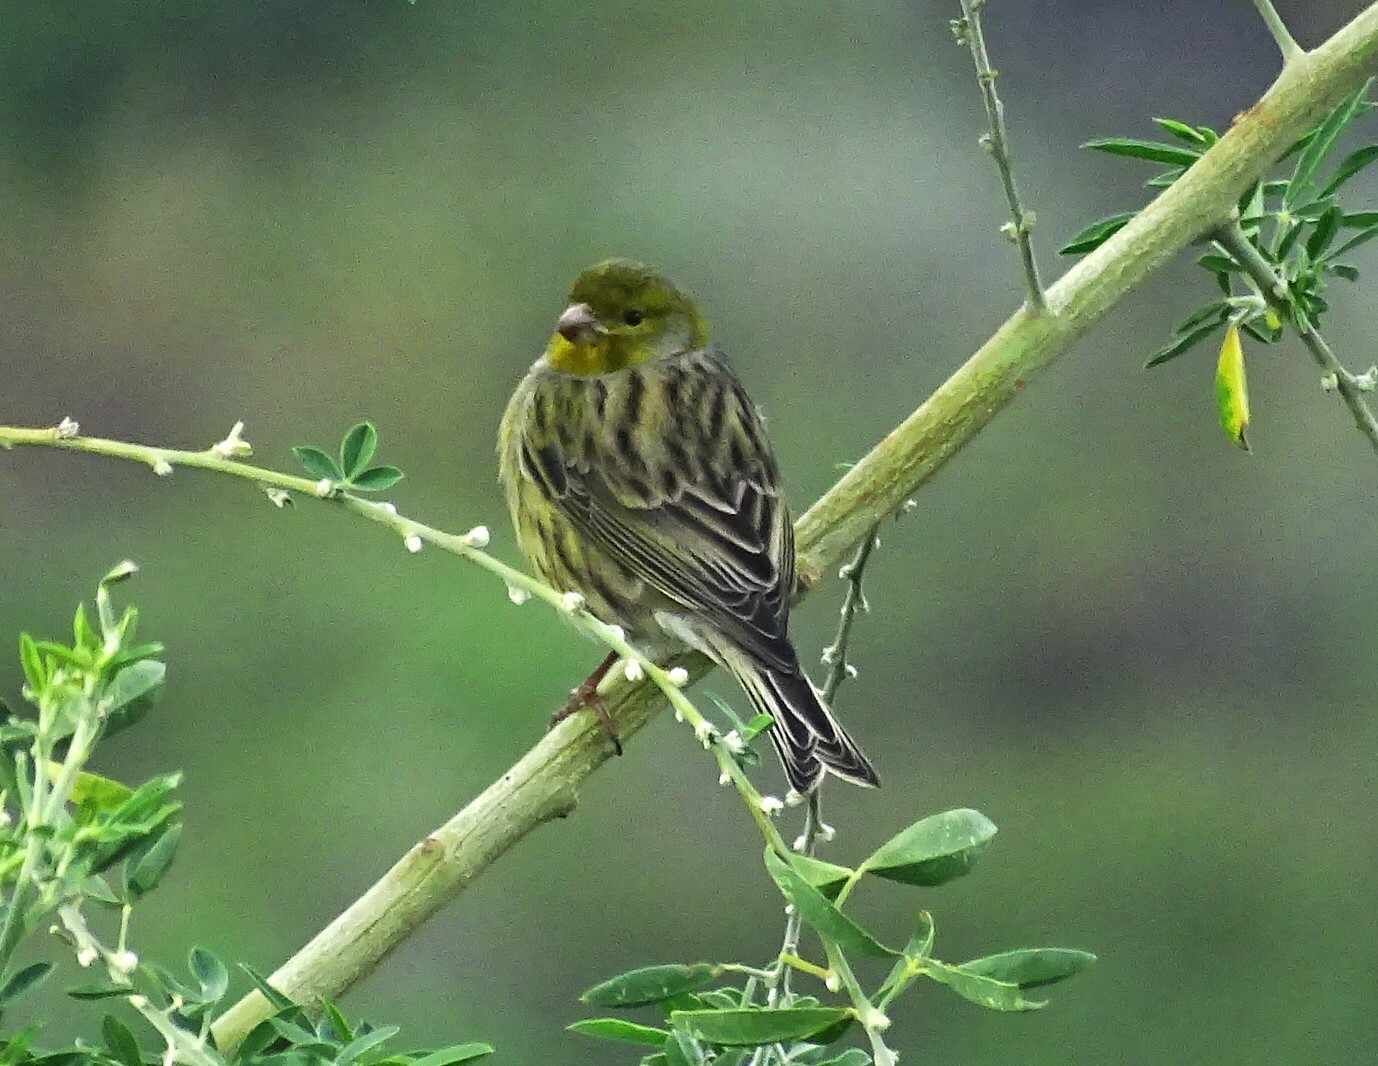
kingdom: Animalia
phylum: Chordata
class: Aves
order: Passeriformes
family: Fringillidae
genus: Serinus
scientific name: Serinus canaria
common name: Atlantic canary
